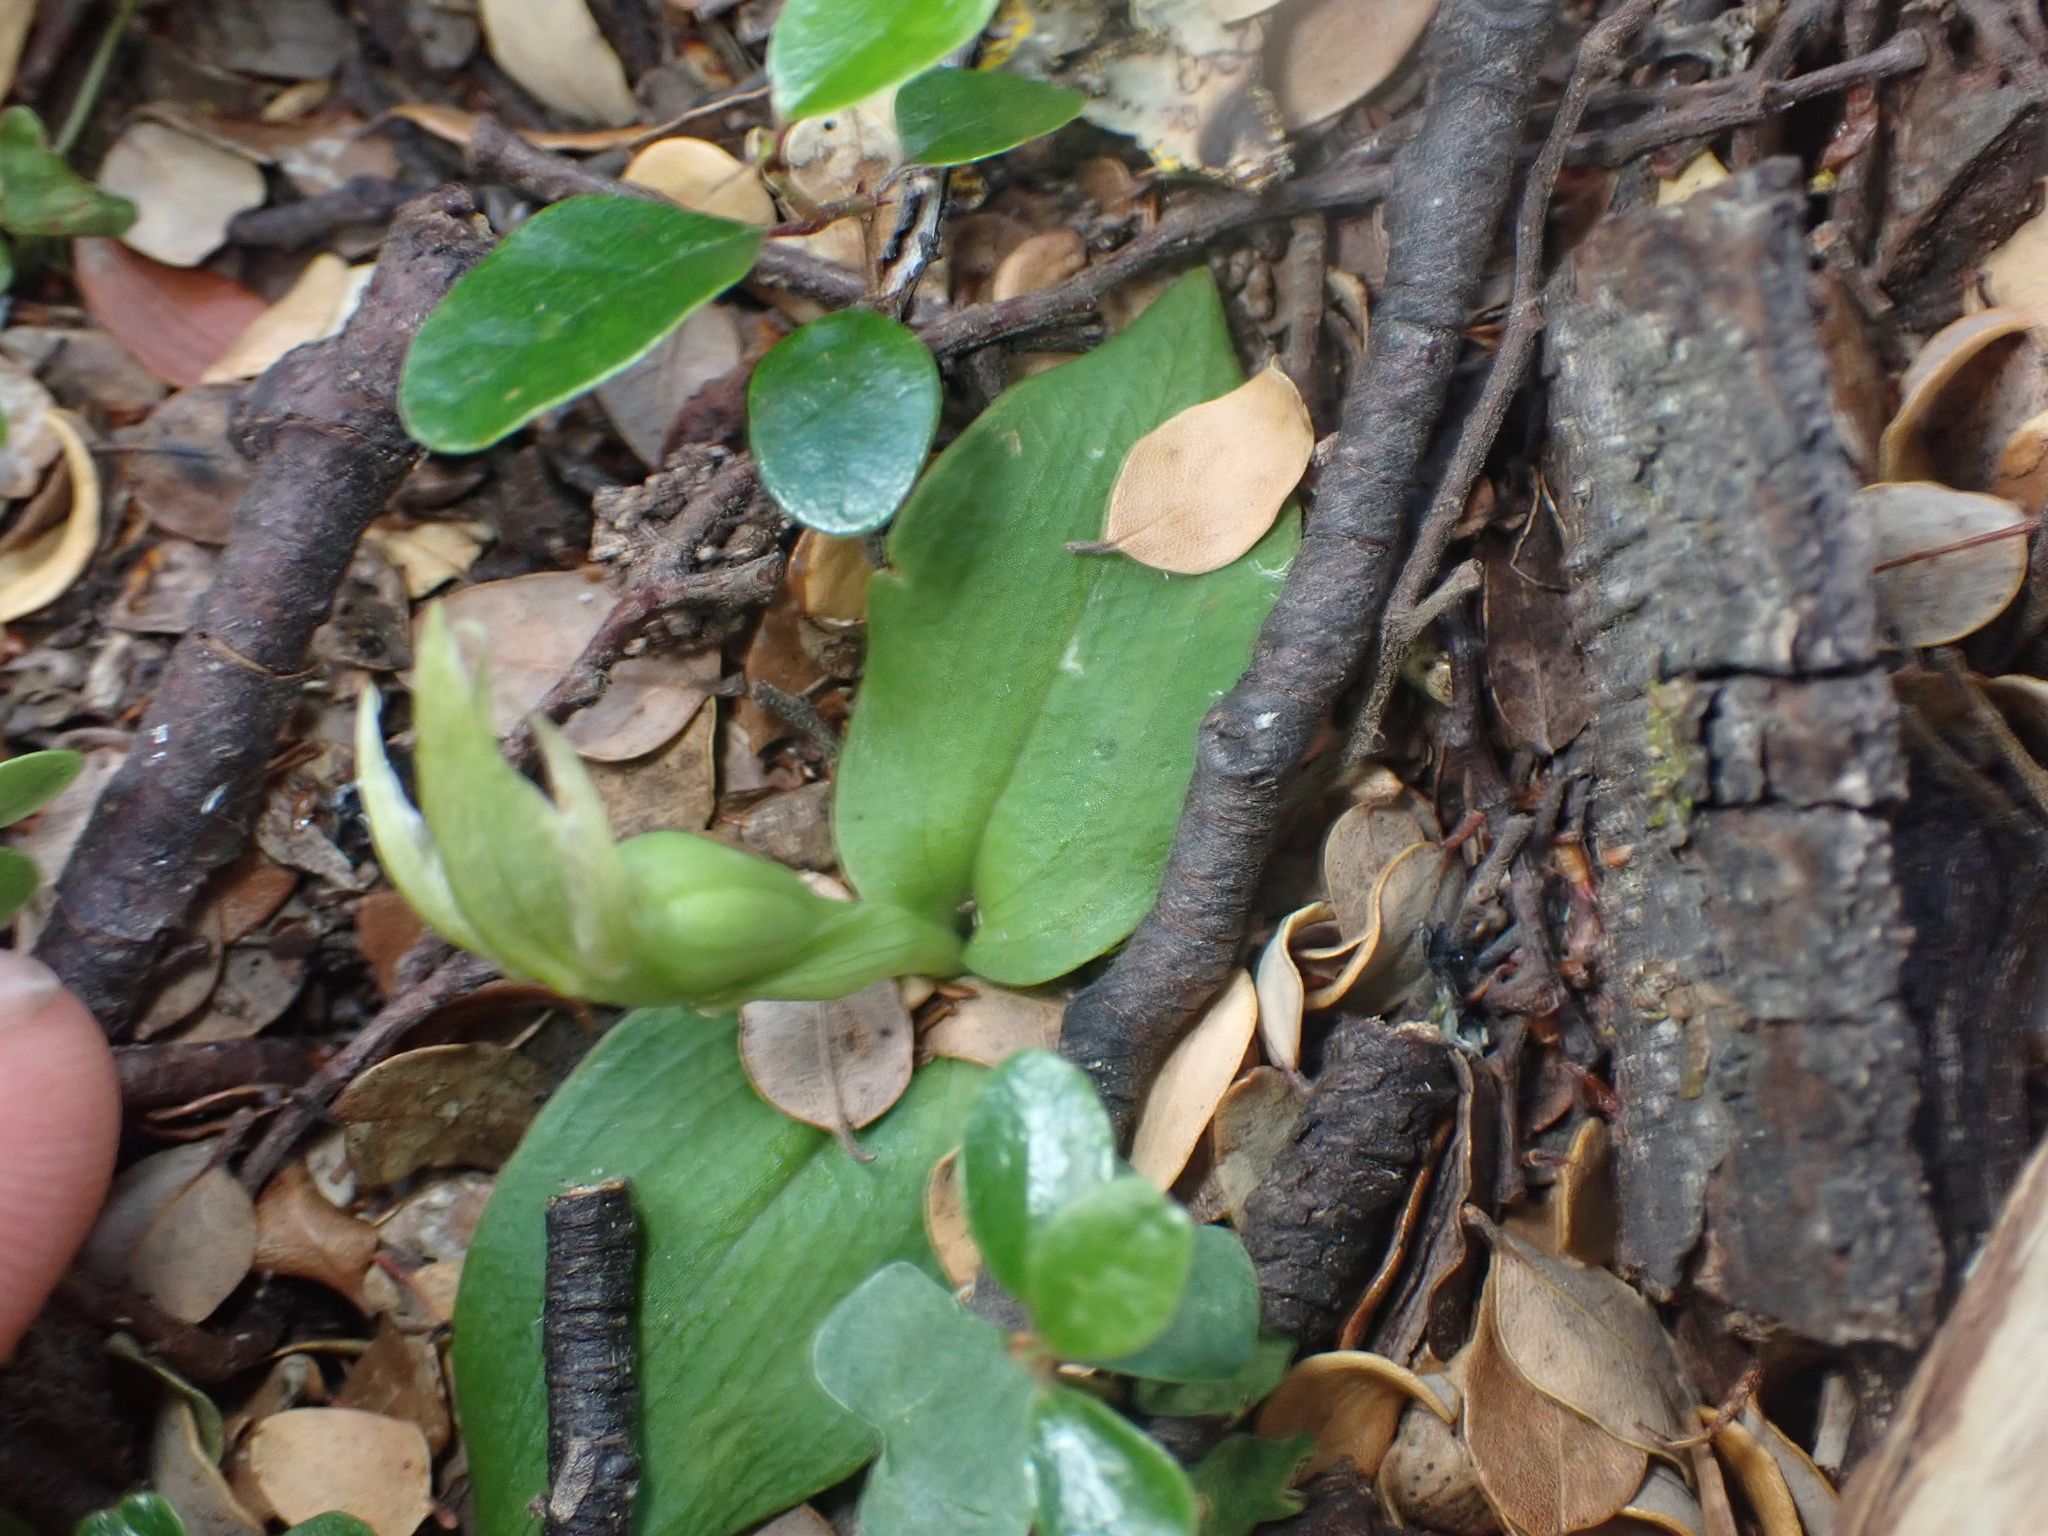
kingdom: Plantae
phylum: Tracheophyta
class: Liliopsida
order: Asparagales
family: Orchidaceae
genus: Chiloglottis
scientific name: Chiloglottis cornuta
